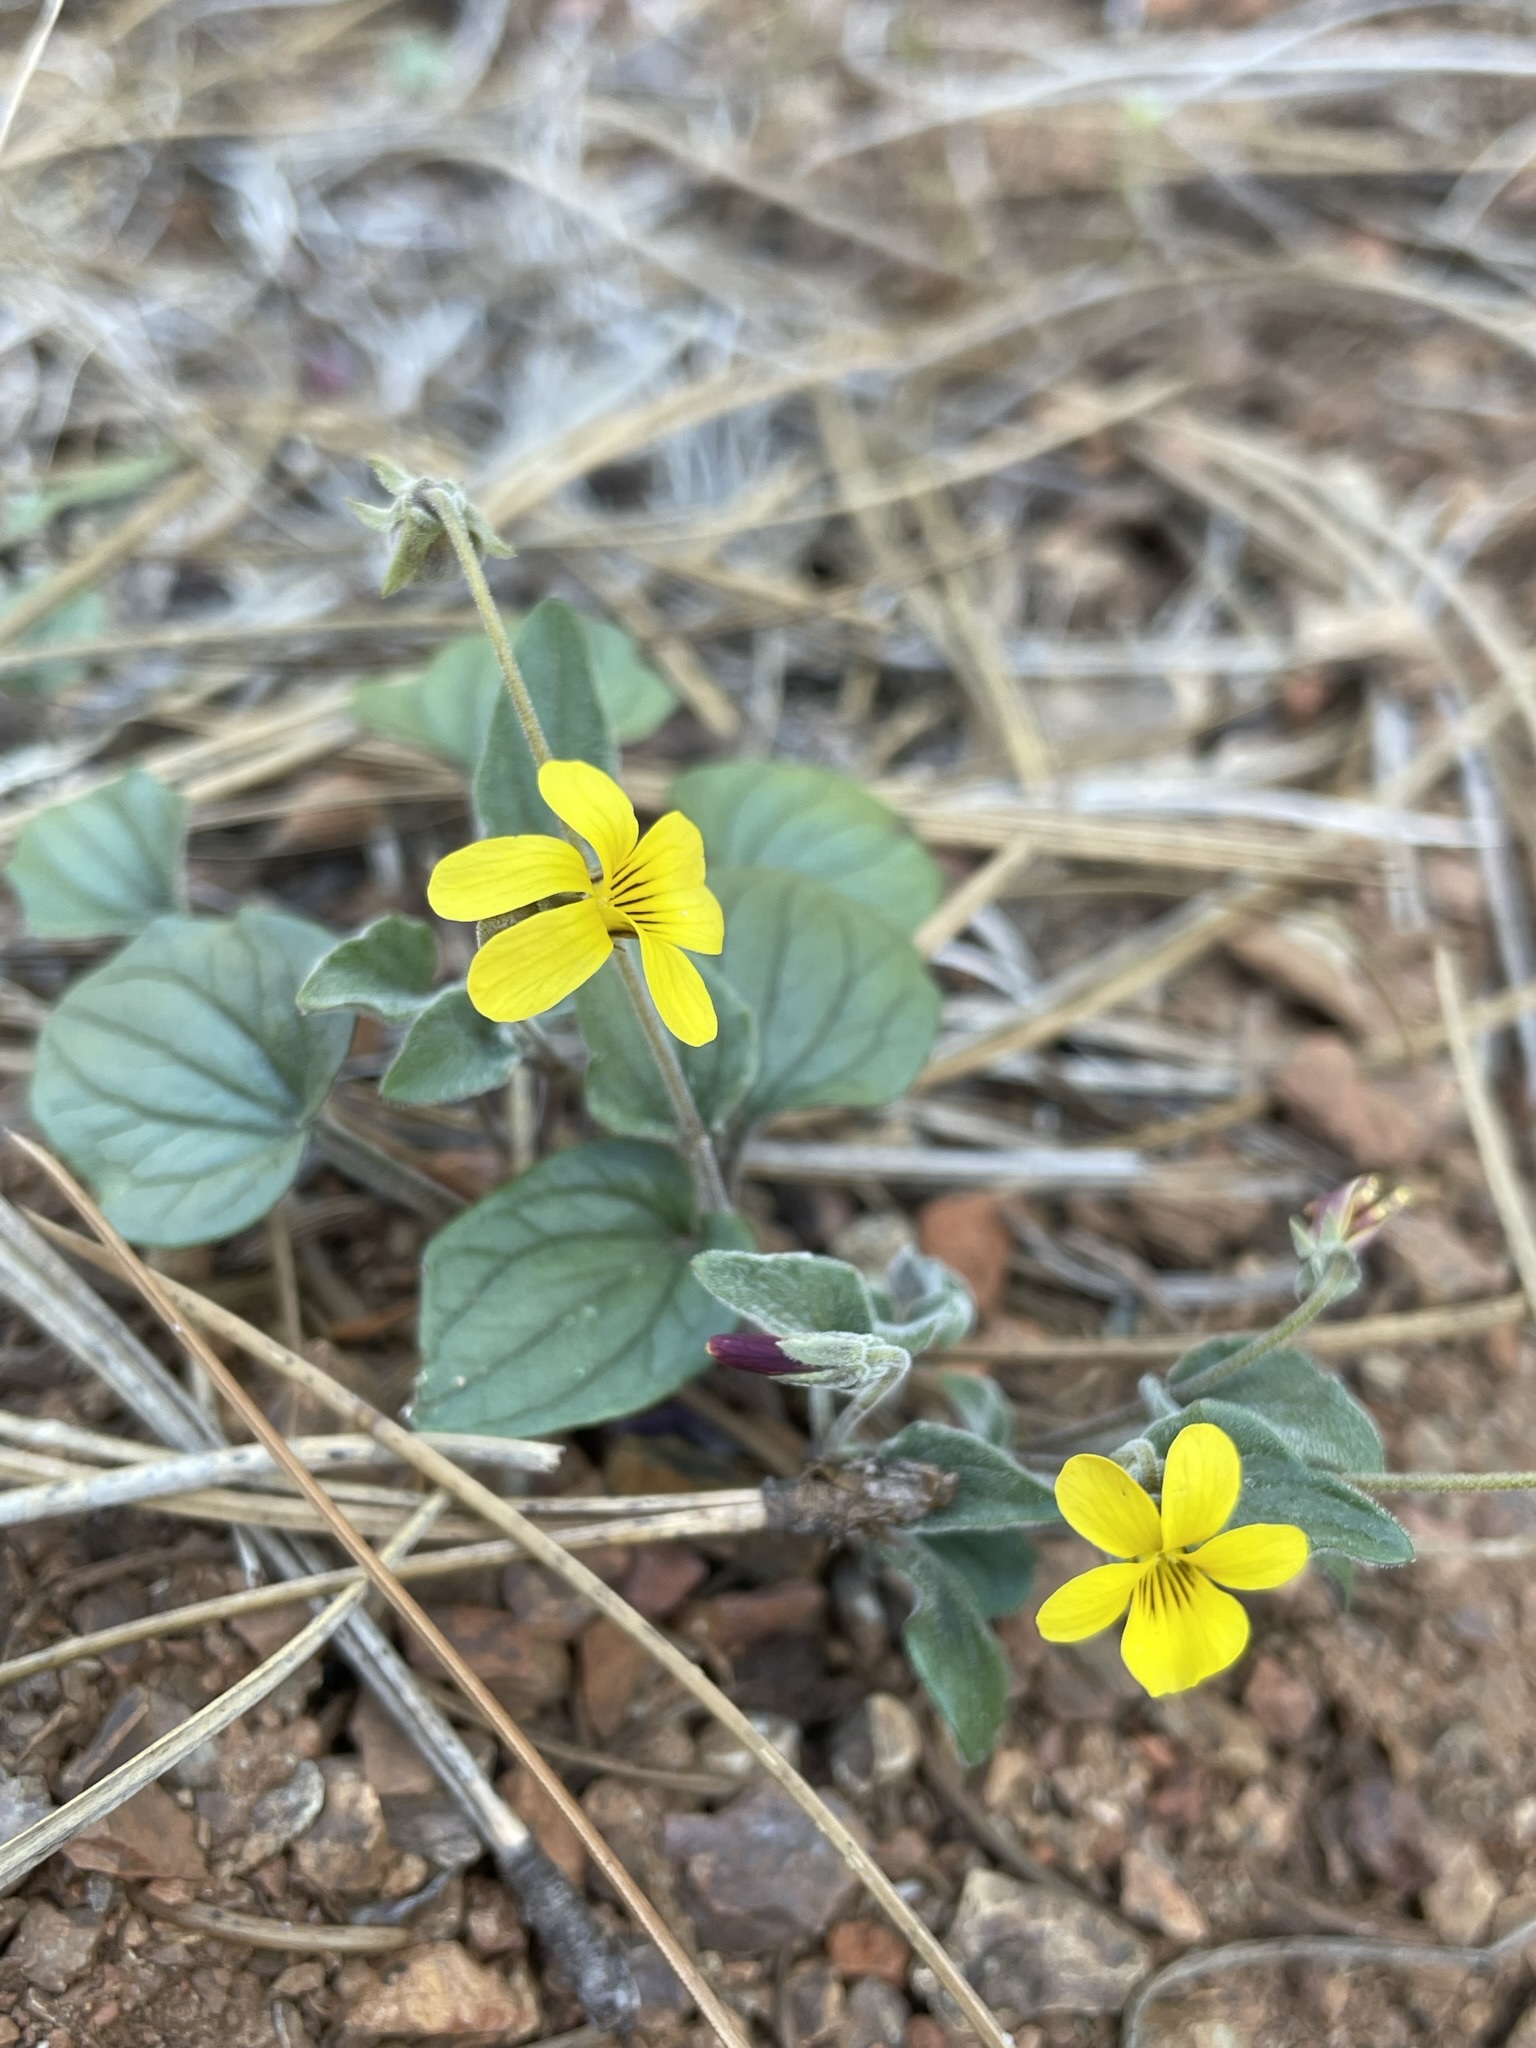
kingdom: Plantae
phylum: Tracheophyta
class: Magnoliopsida
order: Malpighiales
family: Violaceae
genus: Viola
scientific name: Viola purpurea
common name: Pine violet
